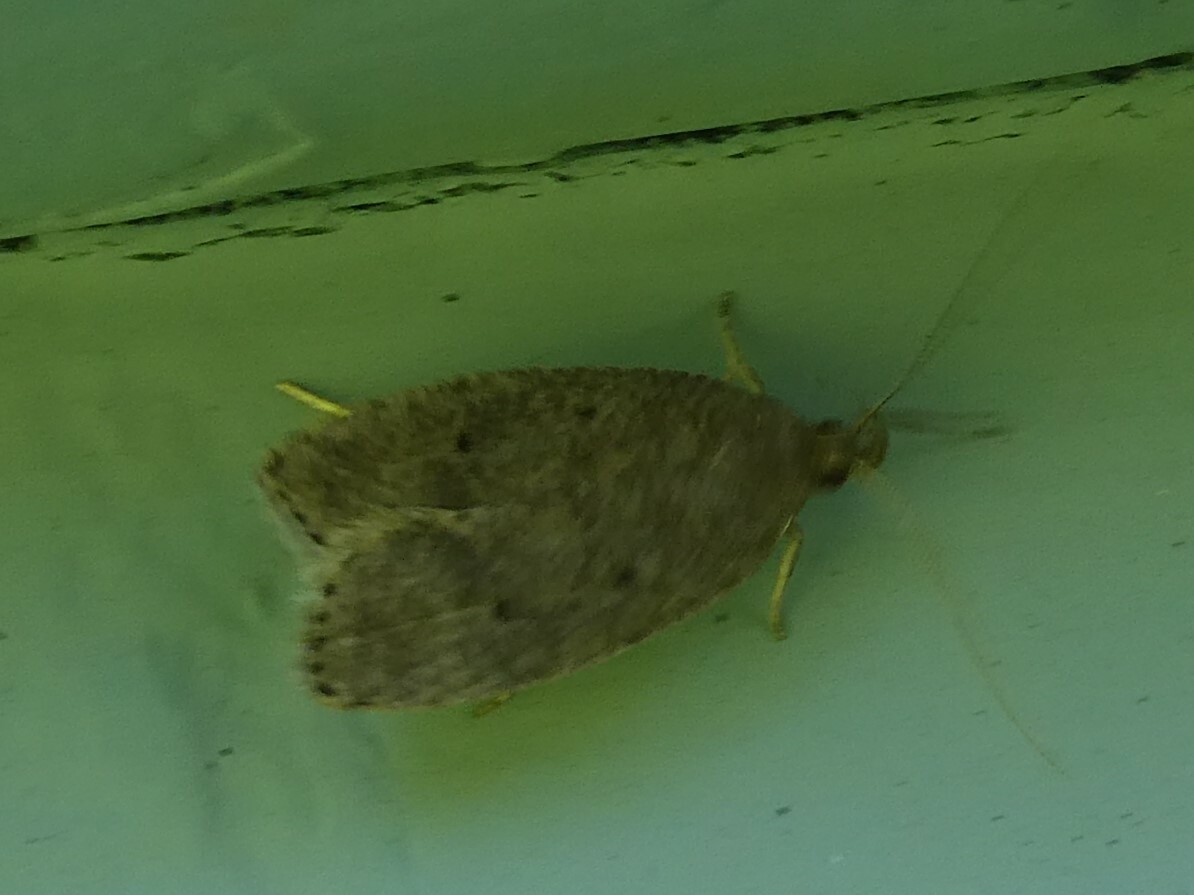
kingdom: Animalia
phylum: Arthropoda
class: Insecta
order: Lepidoptera
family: Depressariidae
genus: Psilocorsis
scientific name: Psilocorsis reflexella
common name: Dotted leaftier moth
